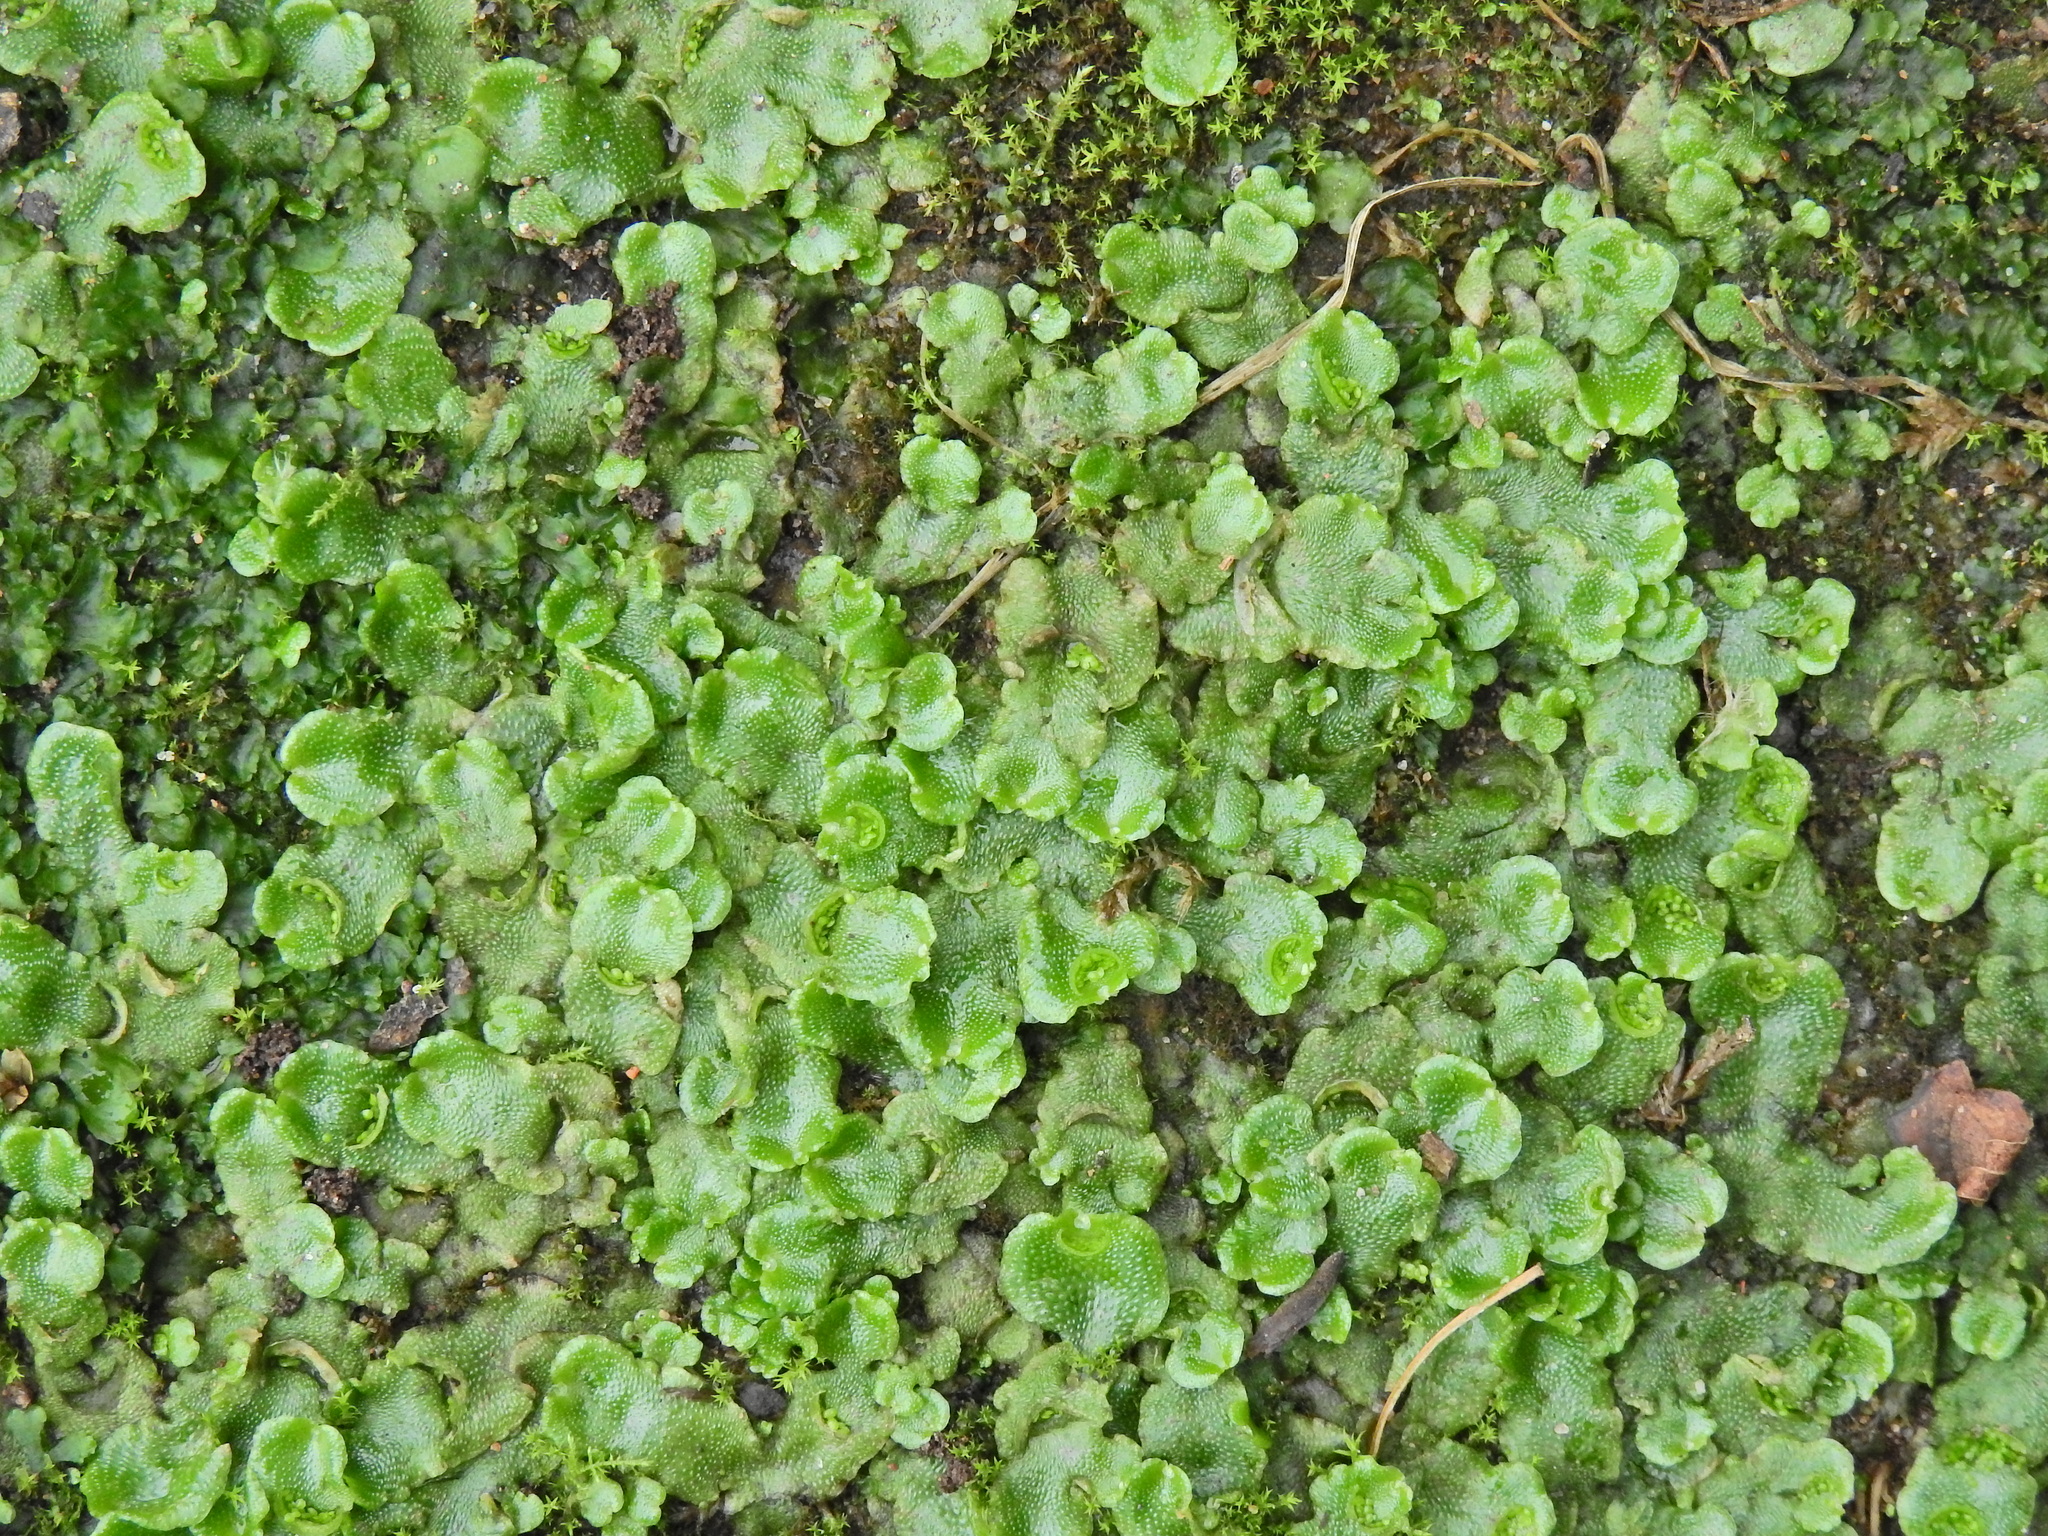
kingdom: Plantae
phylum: Marchantiophyta
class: Marchantiopsida
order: Lunulariales
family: Lunulariaceae
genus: Lunularia
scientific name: Lunularia cruciata
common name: Crescent-cup liverwort
